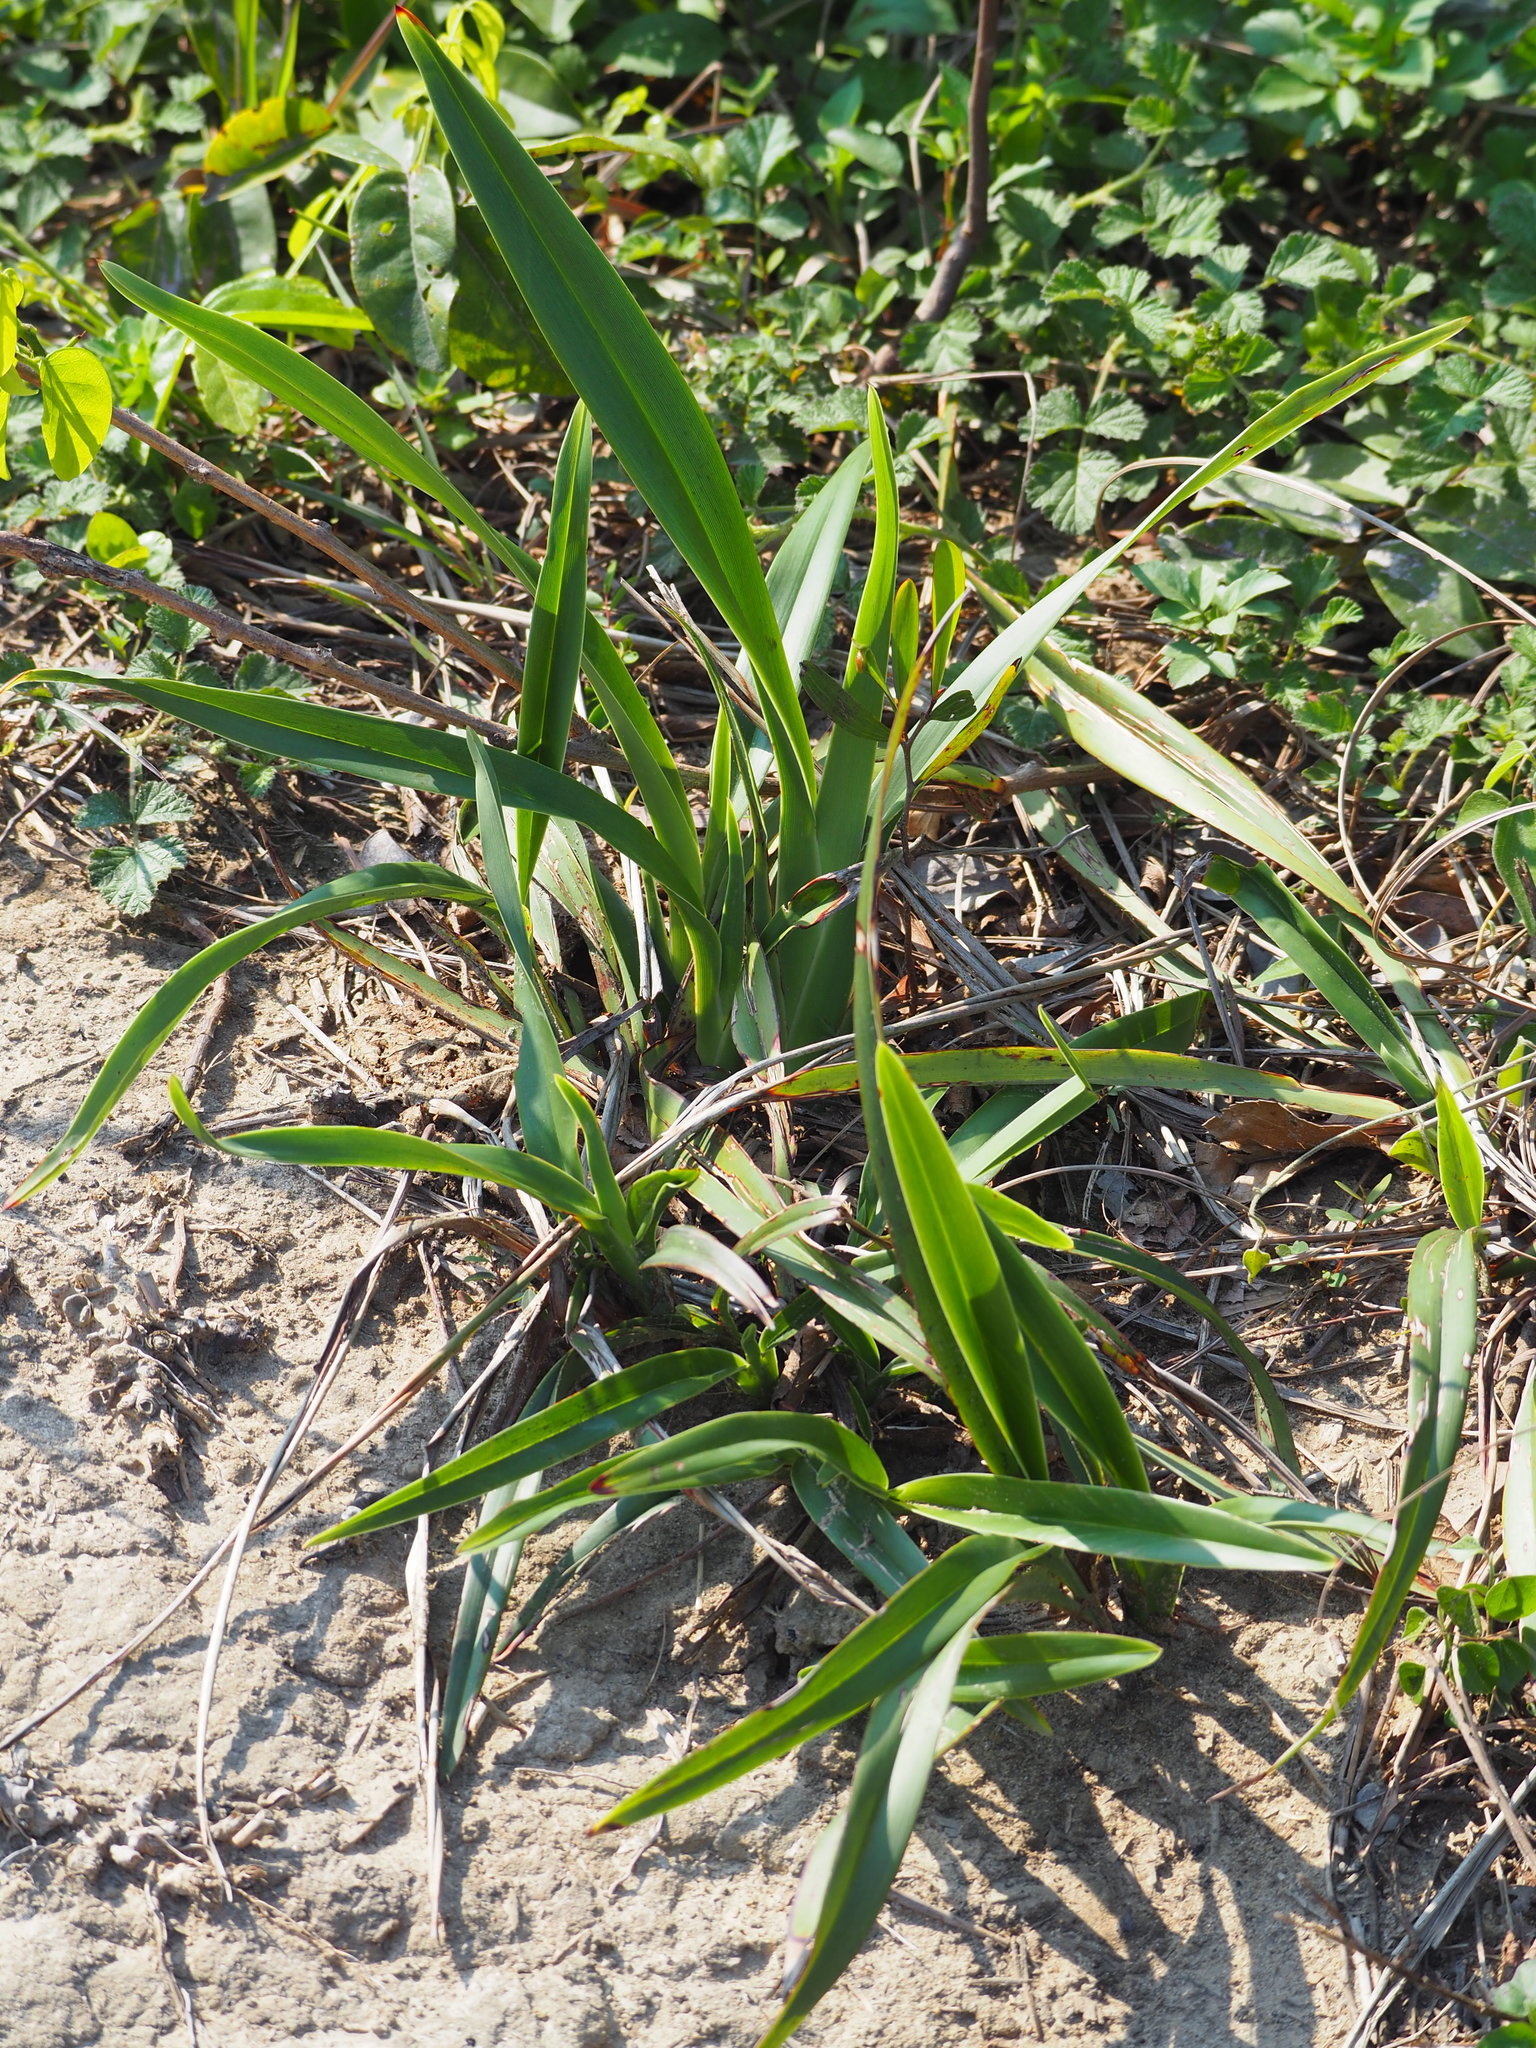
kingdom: Plantae
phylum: Tracheophyta
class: Liliopsida
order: Asparagales
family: Asphodelaceae
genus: Dianella
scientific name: Dianella ensifolia
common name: New zealand lilyplant
